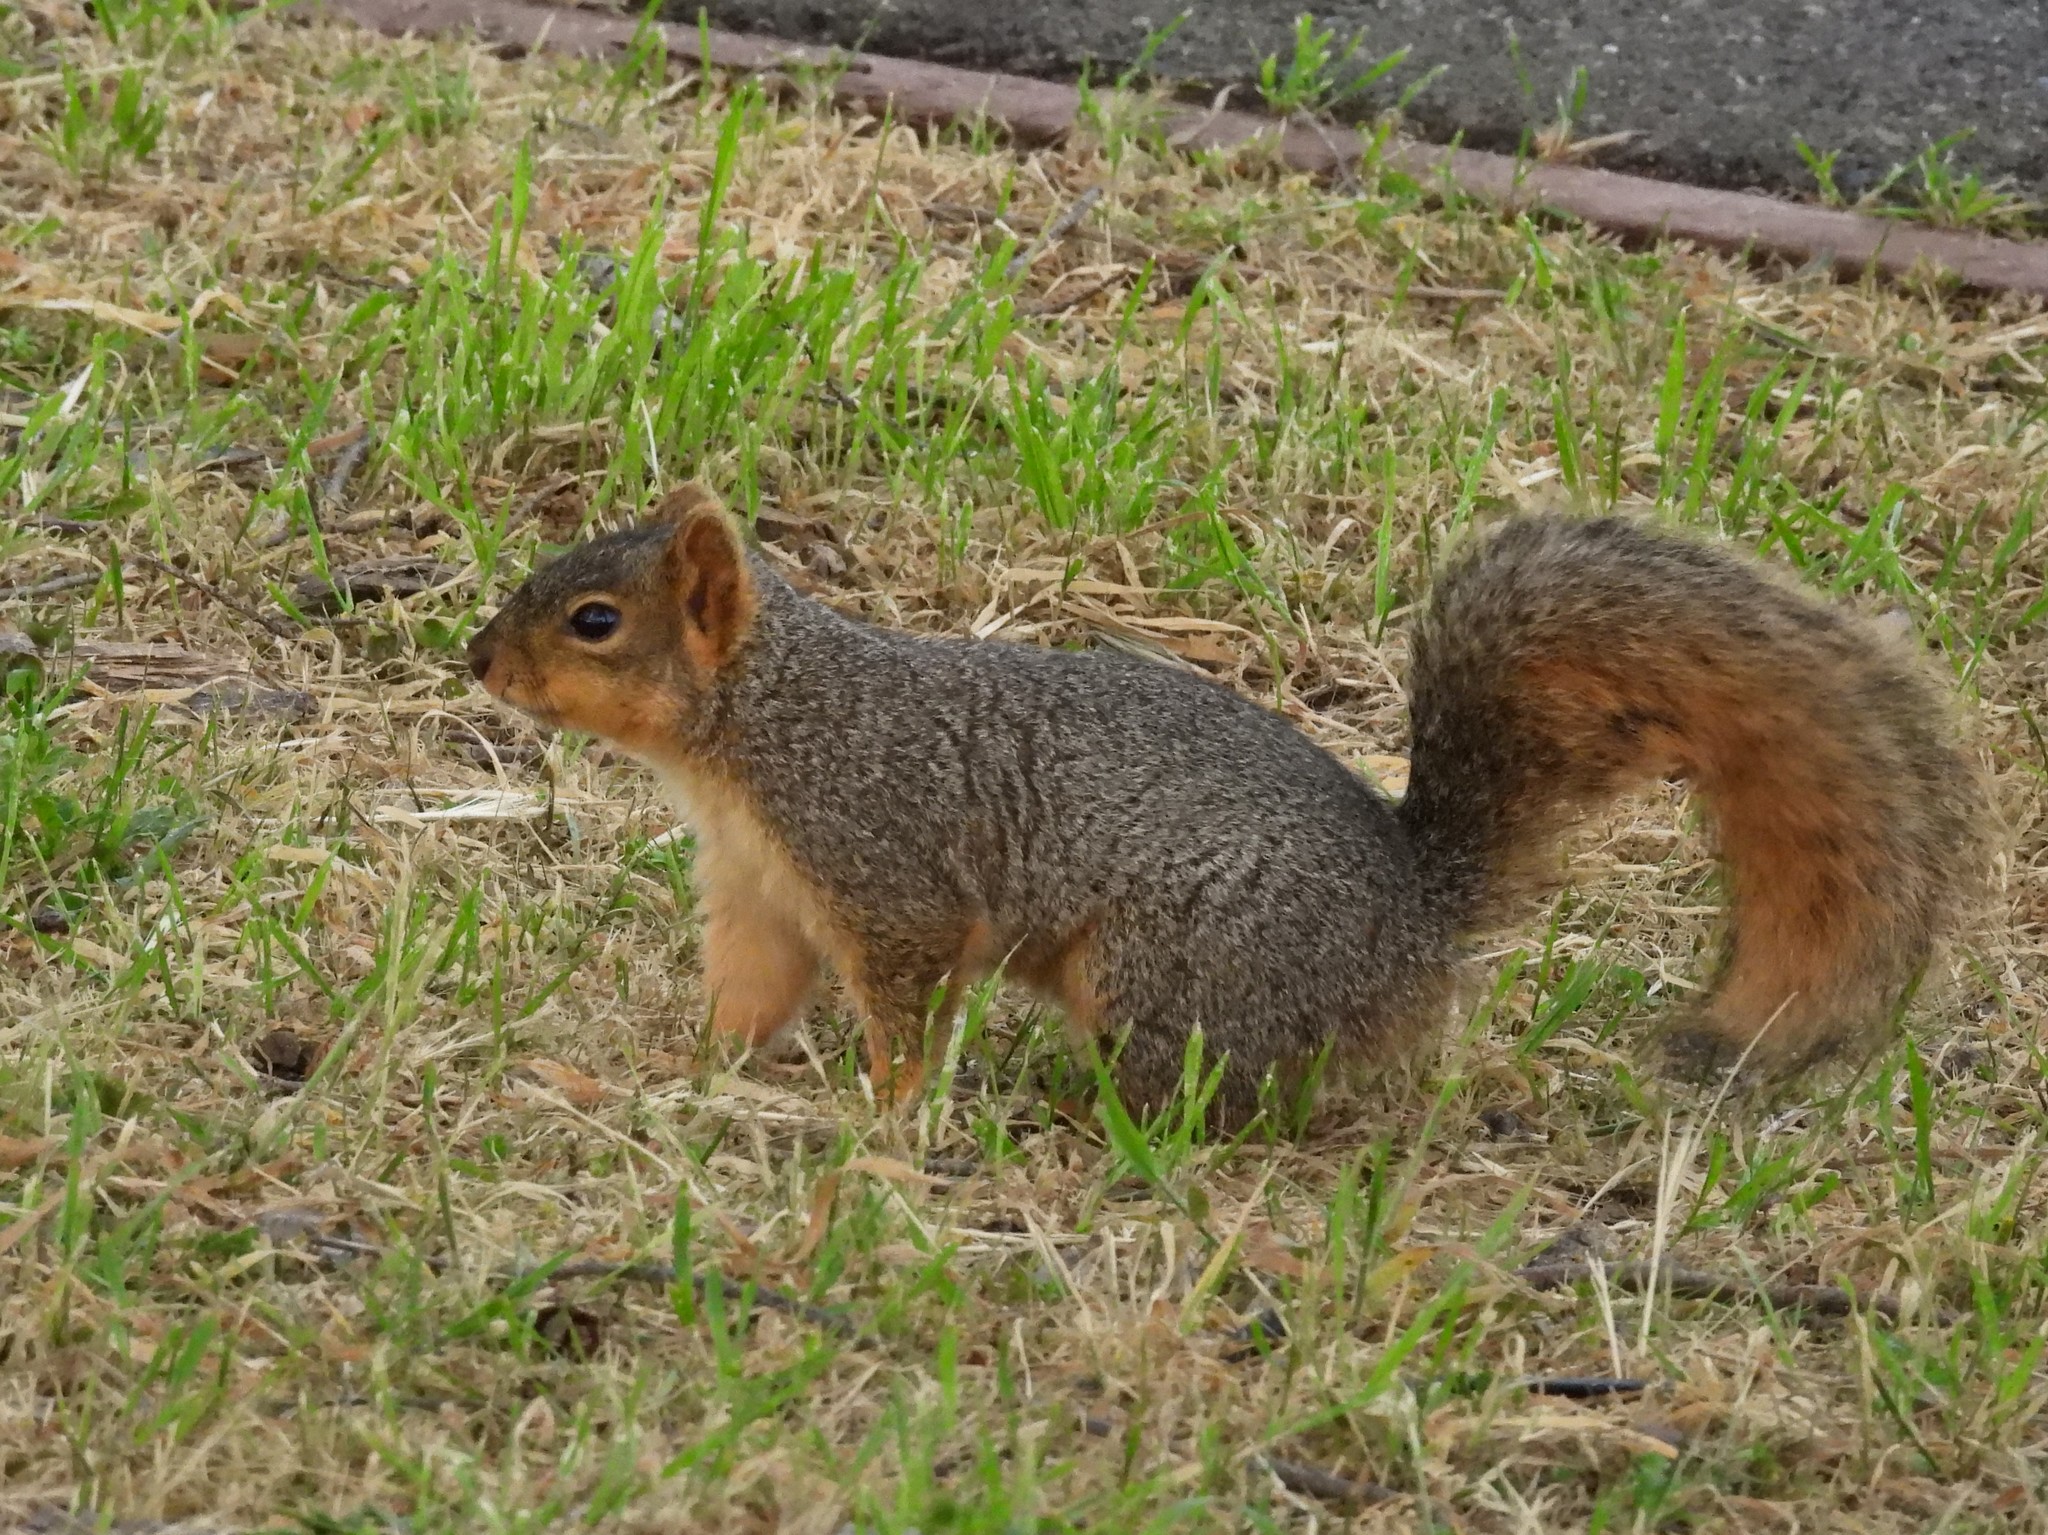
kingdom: Animalia
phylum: Chordata
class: Mammalia
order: Rodentia
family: Sciuridae
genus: Sciurus
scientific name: Sciurus niger
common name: Fox squirrel
